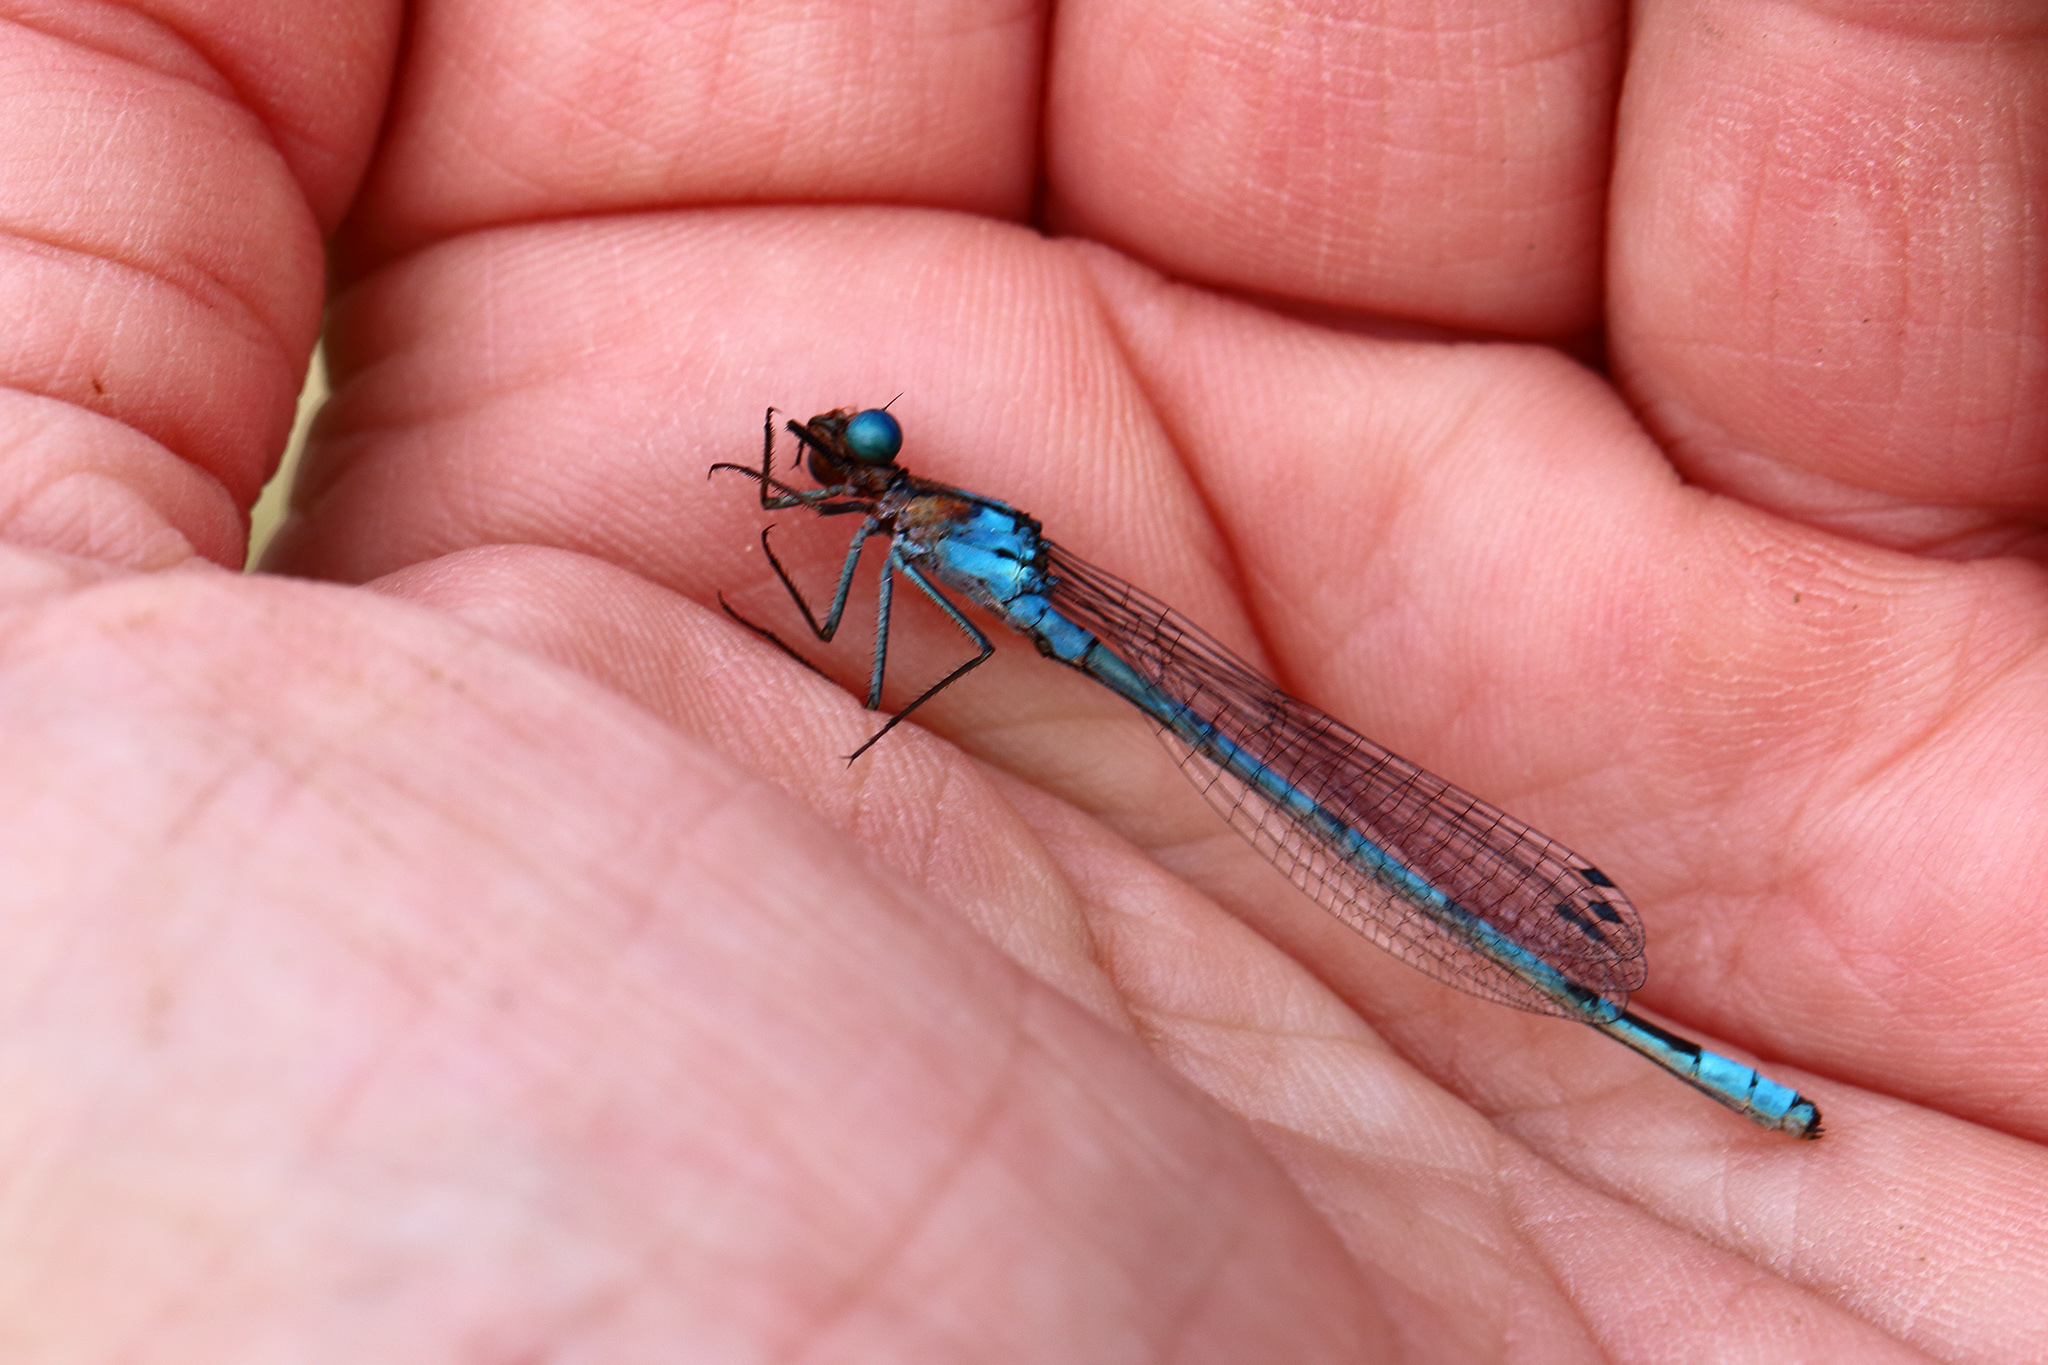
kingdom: Animalia
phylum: Arthropoda
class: Insecta
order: Odonata
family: Coenagrionidae
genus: Enallagma
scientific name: Enallagma cyathigerum
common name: Common blue damselfly
